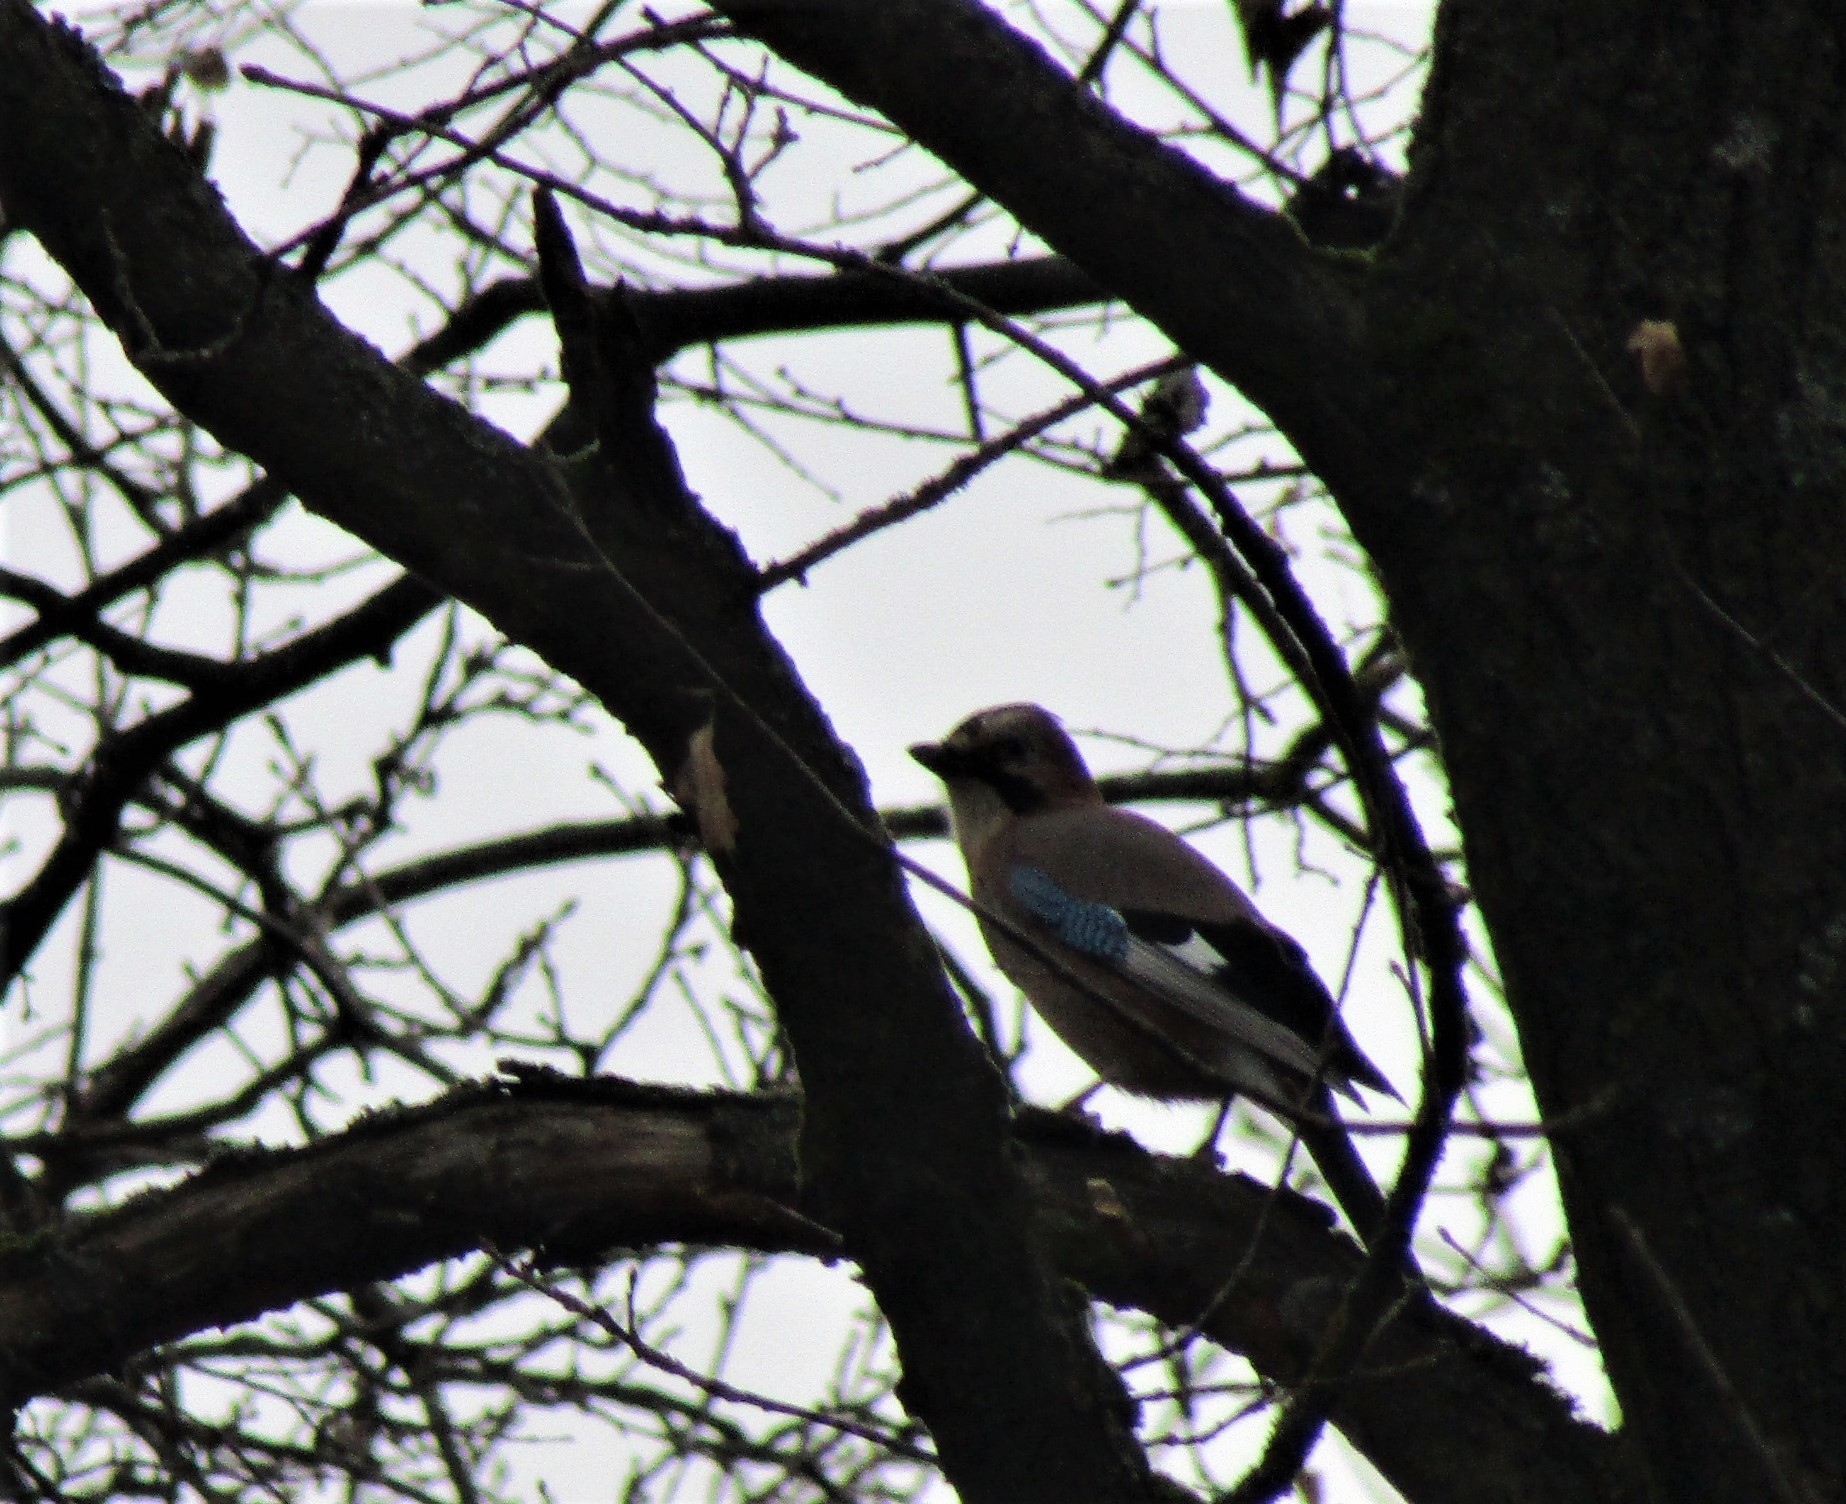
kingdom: Animalia
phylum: Chordata
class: Aves
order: Passeriformes
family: Corvidae
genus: Garrulus
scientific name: Garrulus glandarius
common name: Eurasian jay
